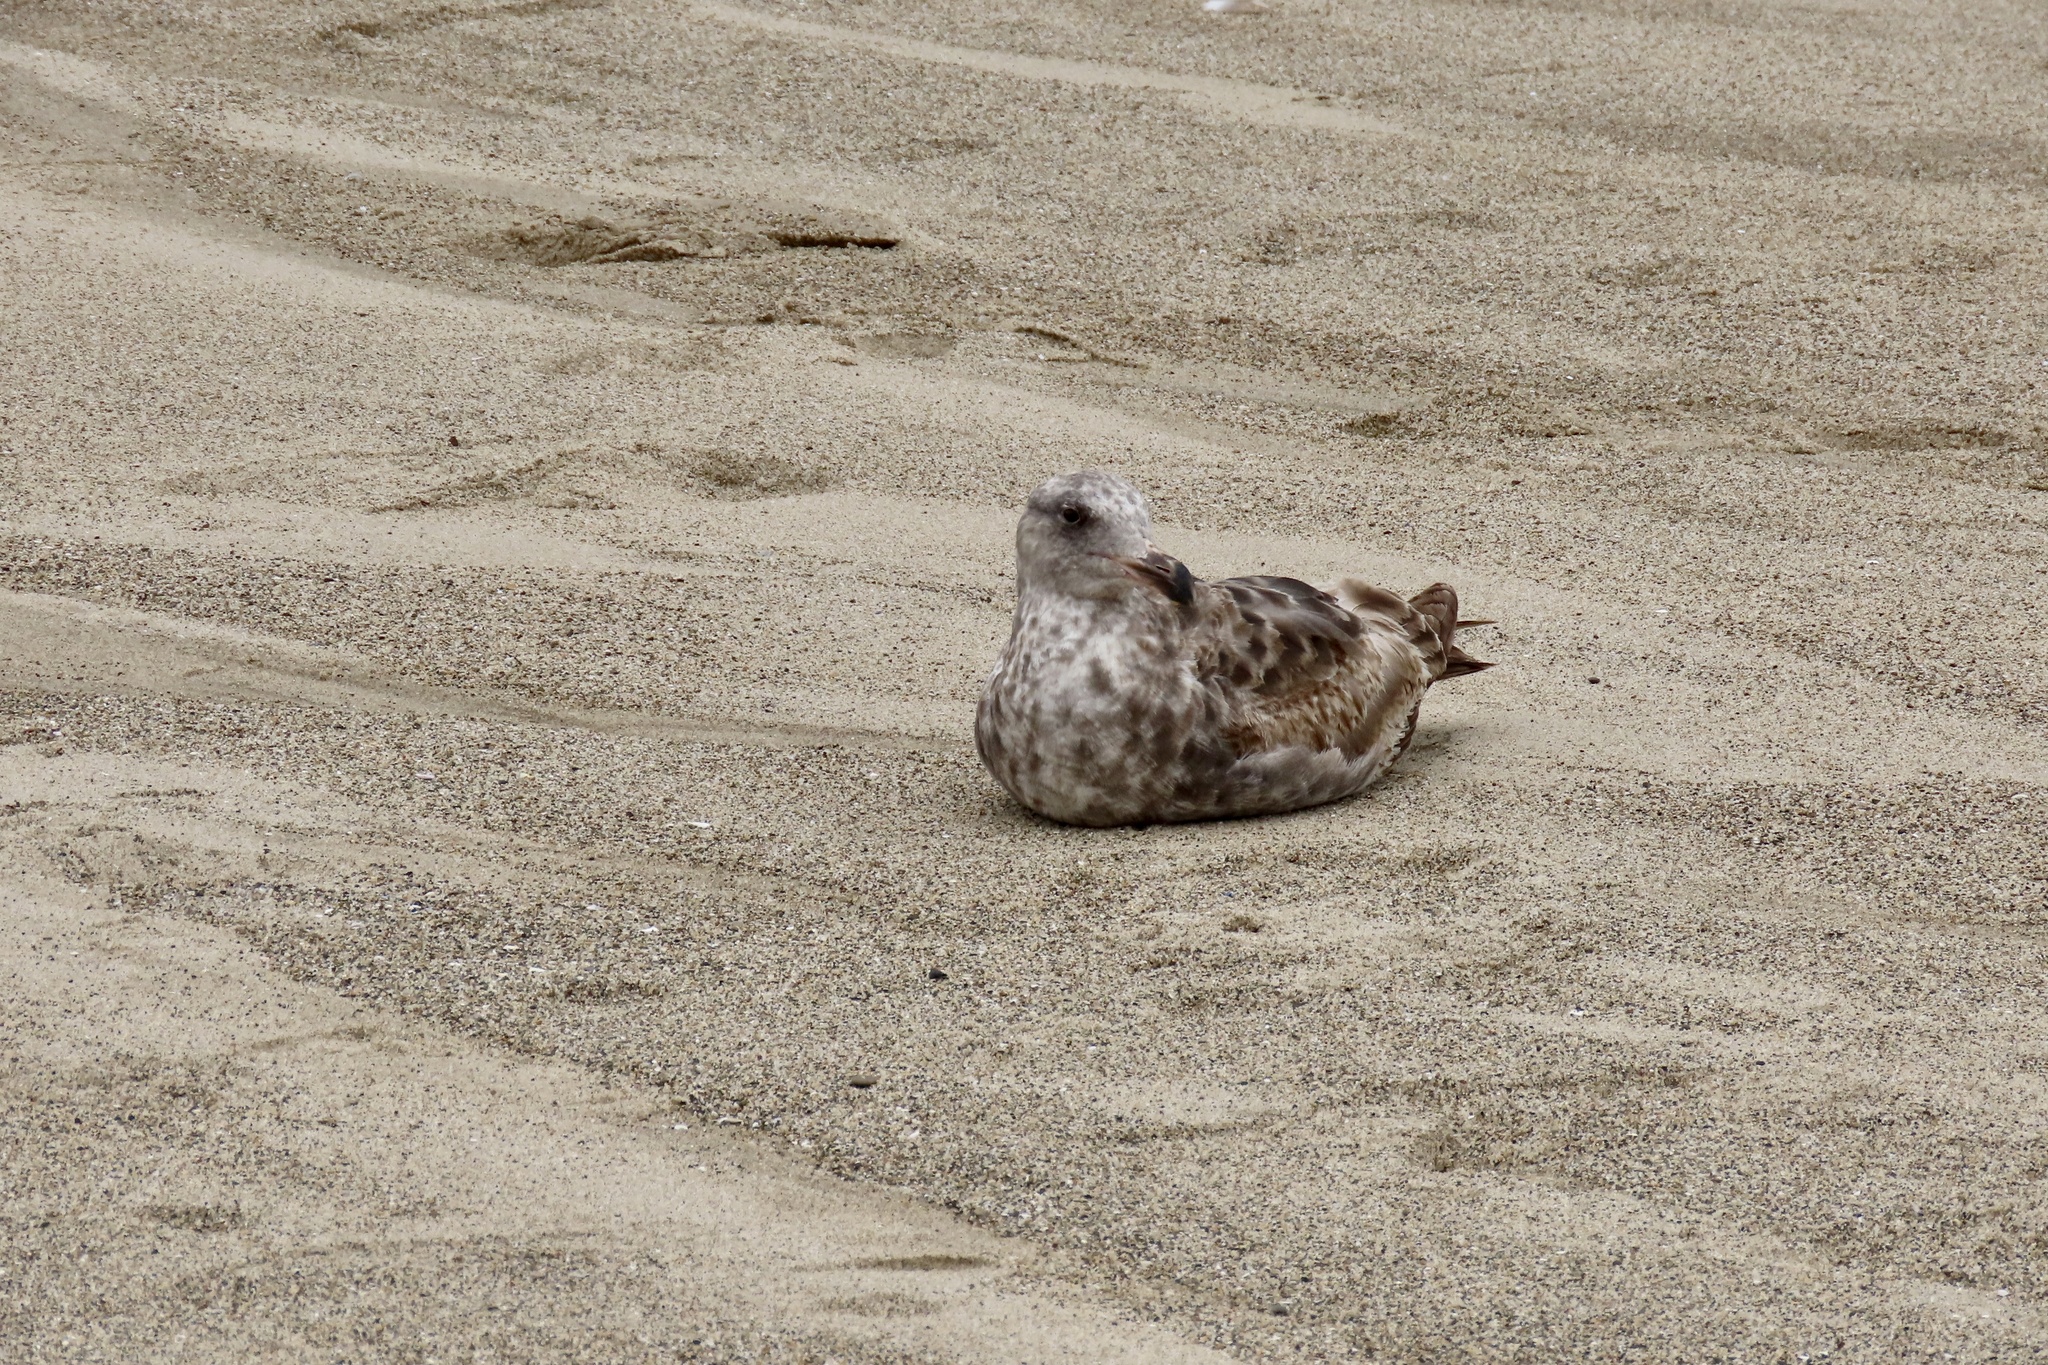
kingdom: Animalia
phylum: Chordata
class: Aves
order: Charadriiformes
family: Laridae
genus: Larus
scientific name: Larus occidentalis
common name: Western gull
